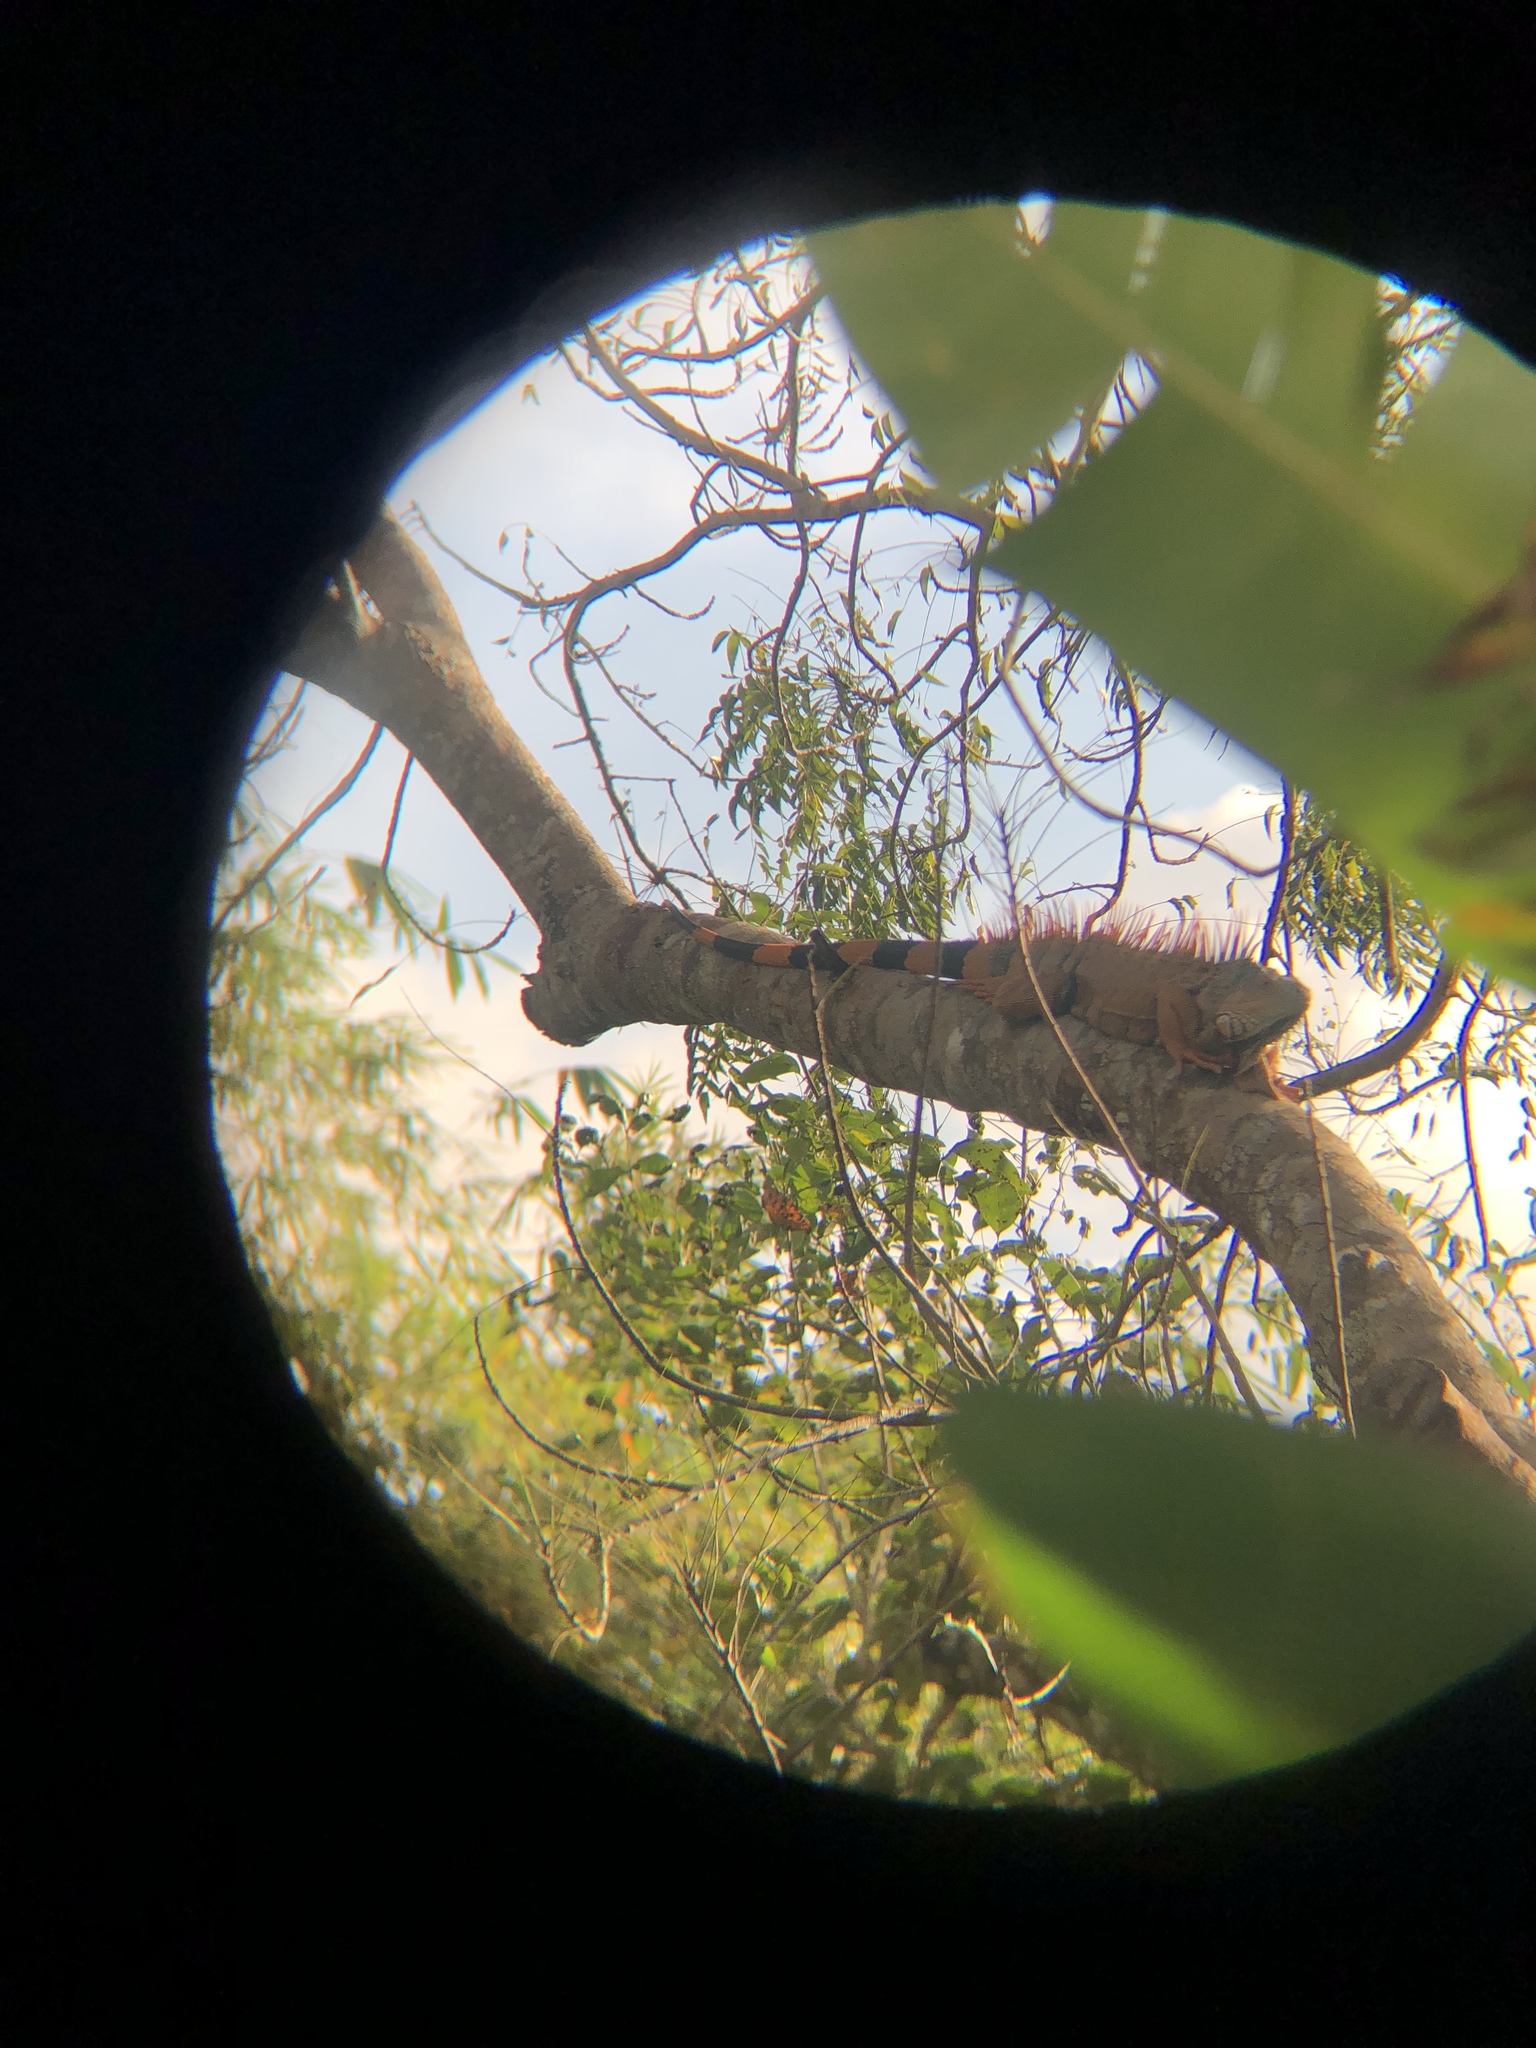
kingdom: Animalia
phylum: Chordata
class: Squamata
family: Iguanidae
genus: Iguana
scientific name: Iguana iguana
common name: Green iguana
